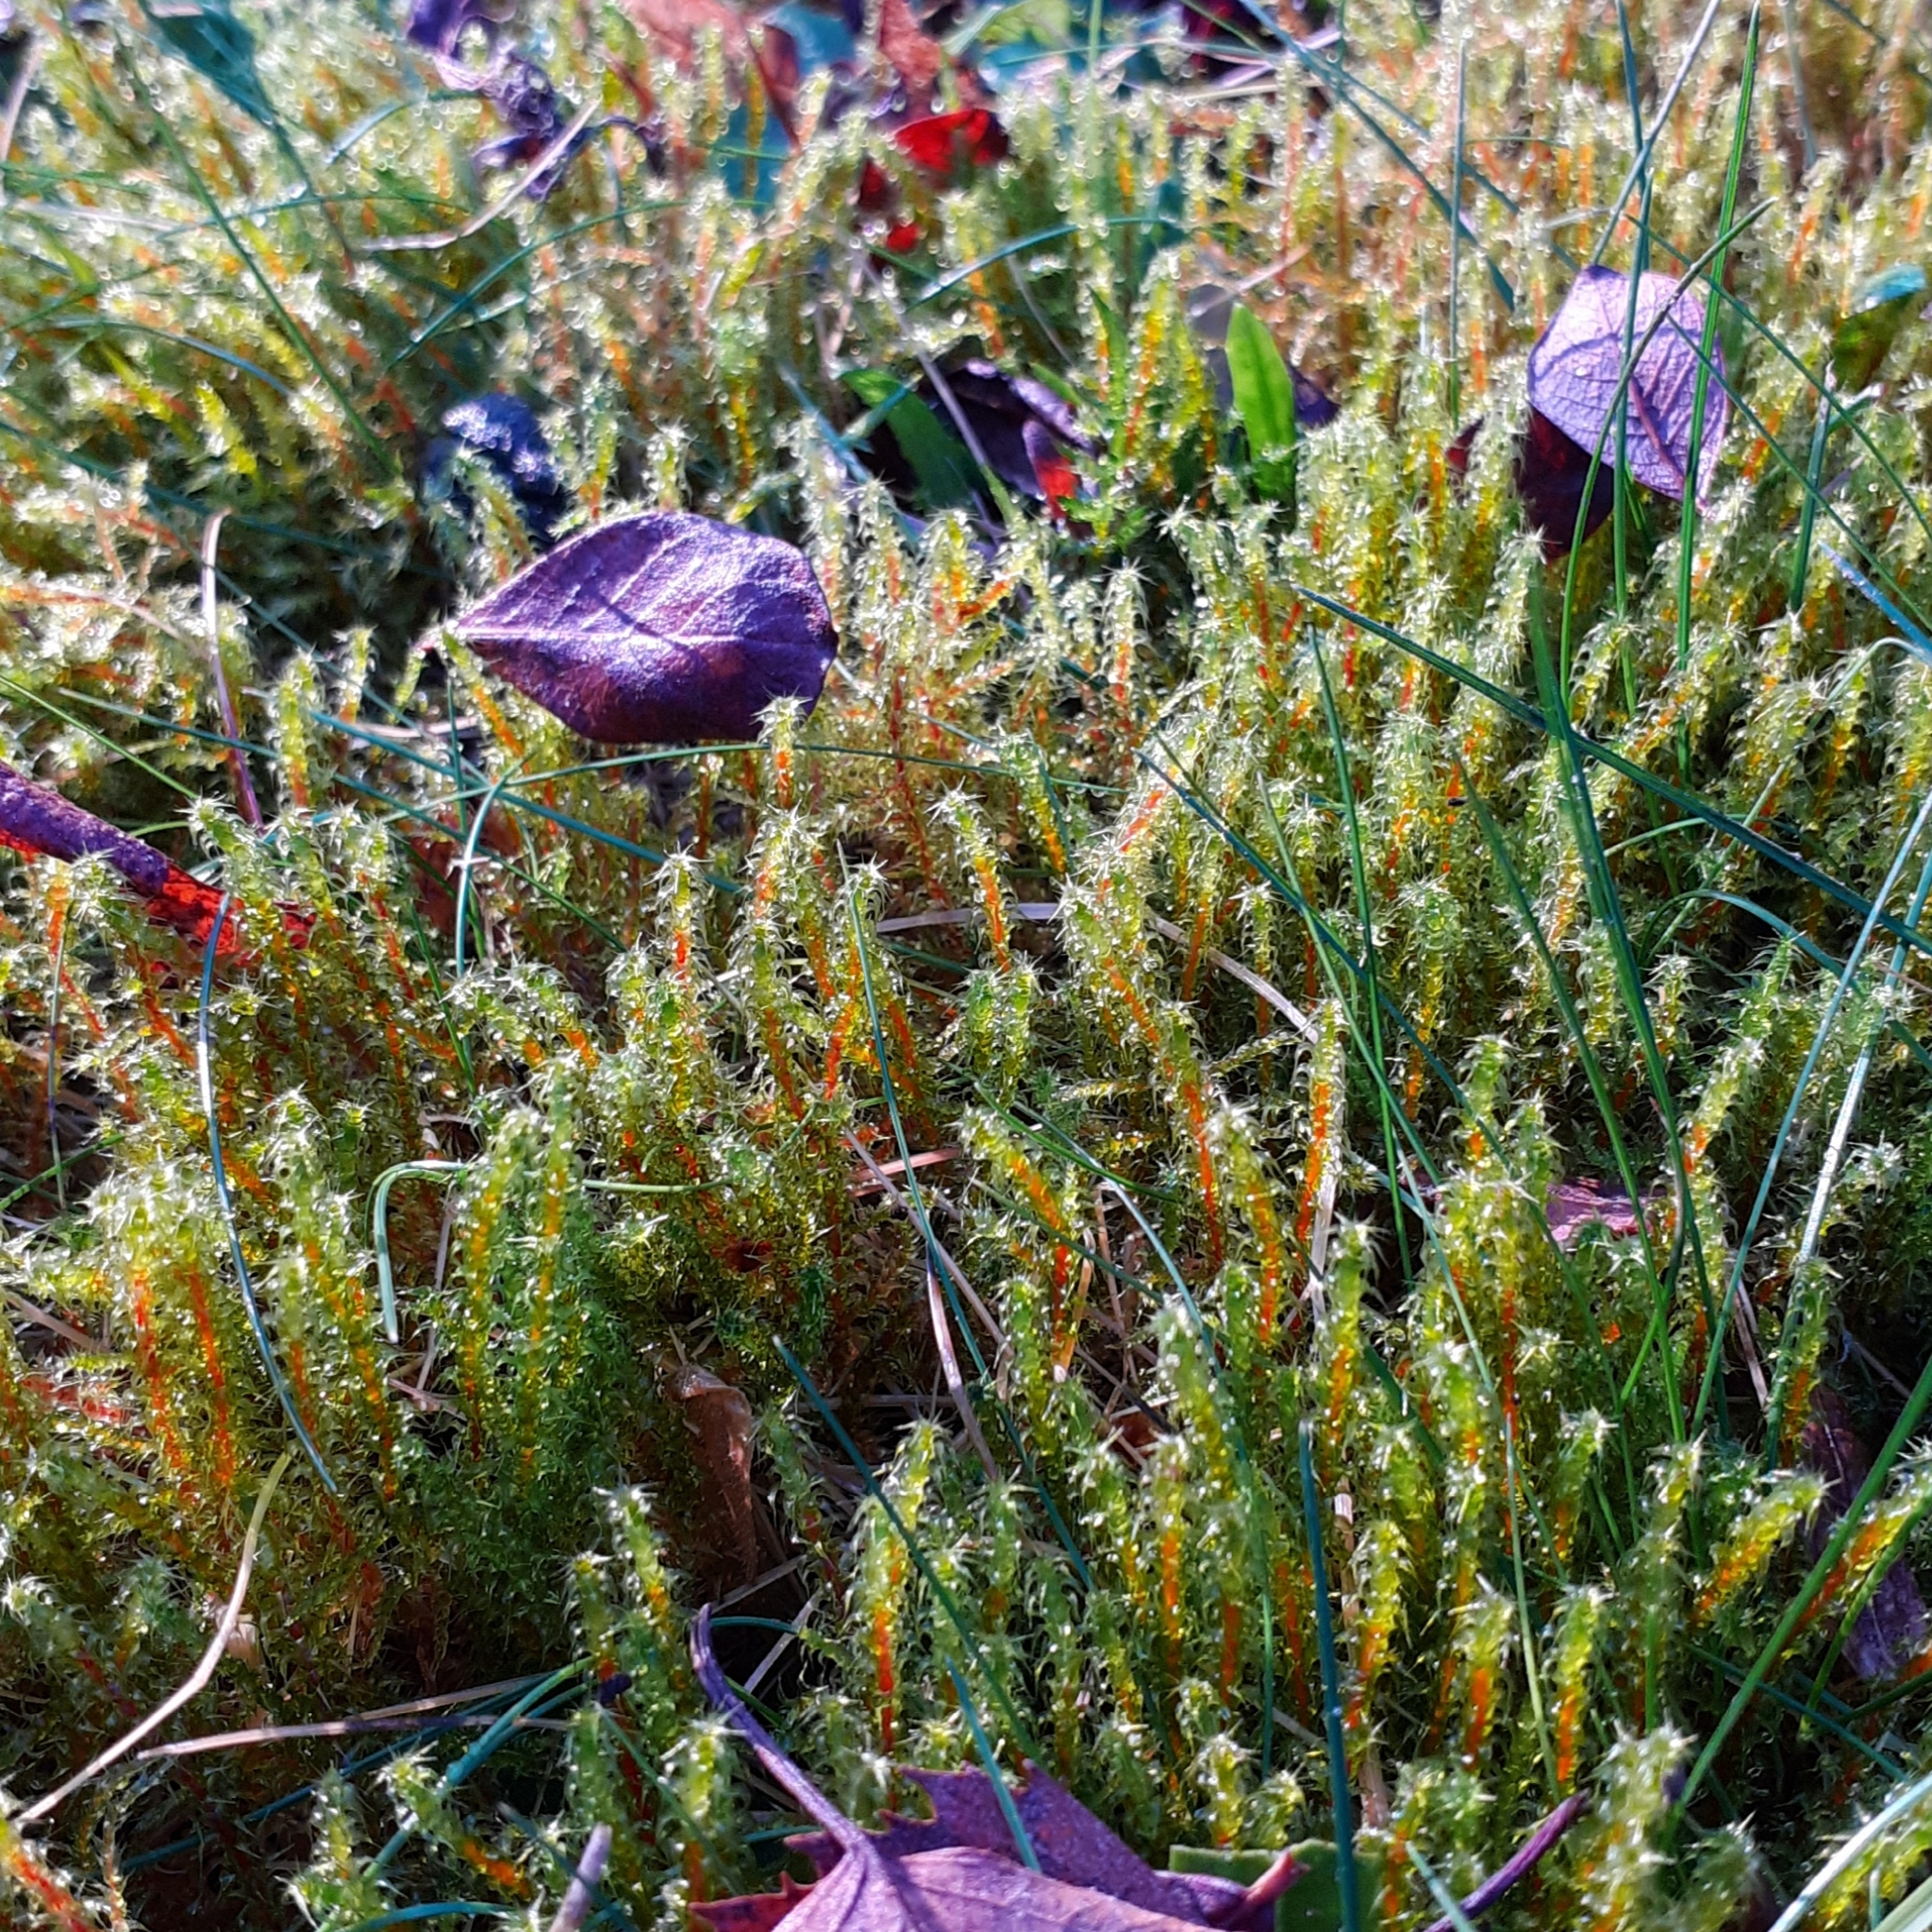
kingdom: Plantae
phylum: Bryophyta
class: Bryopsida
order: Hypnales
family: Hylocomiaceae
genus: Rhytidiadelphus
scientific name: Rhytidiadelphus squarrosus
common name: Springy turf-moss
